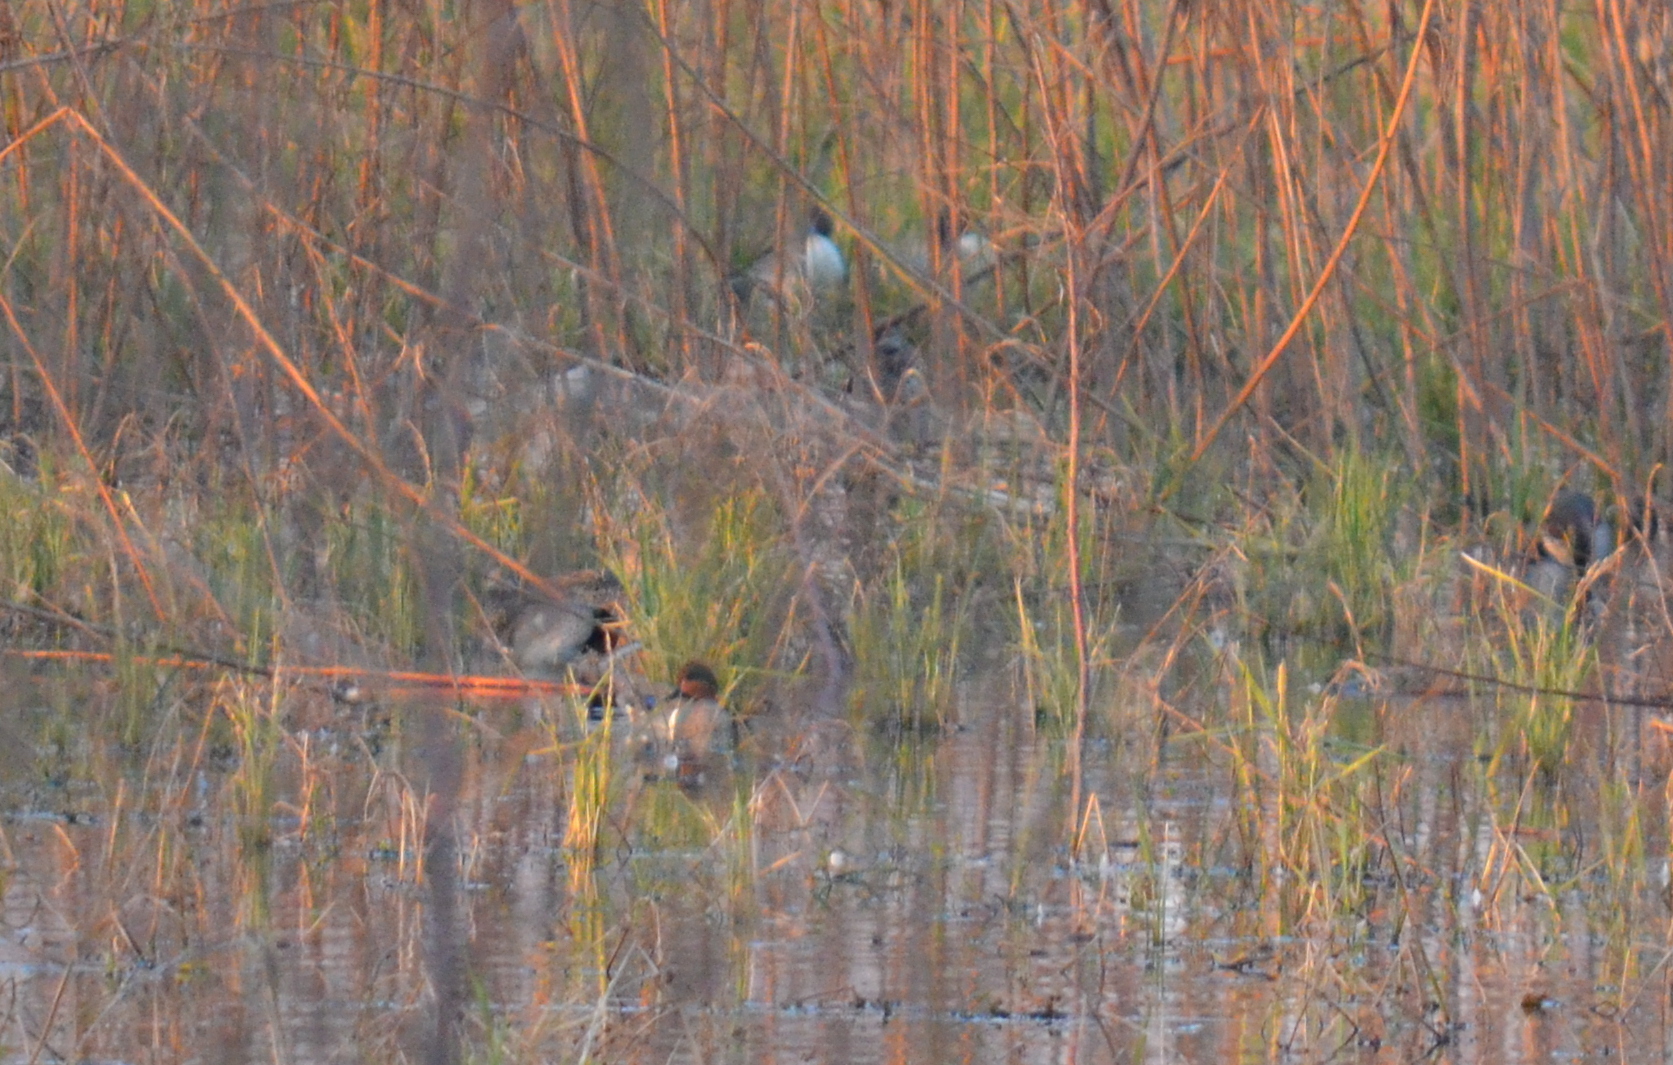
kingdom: Animalia
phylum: Chordata
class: Aves
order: Anseriformes
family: Anatidae
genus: Anas
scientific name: Anas crecca
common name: Eurasian teal
